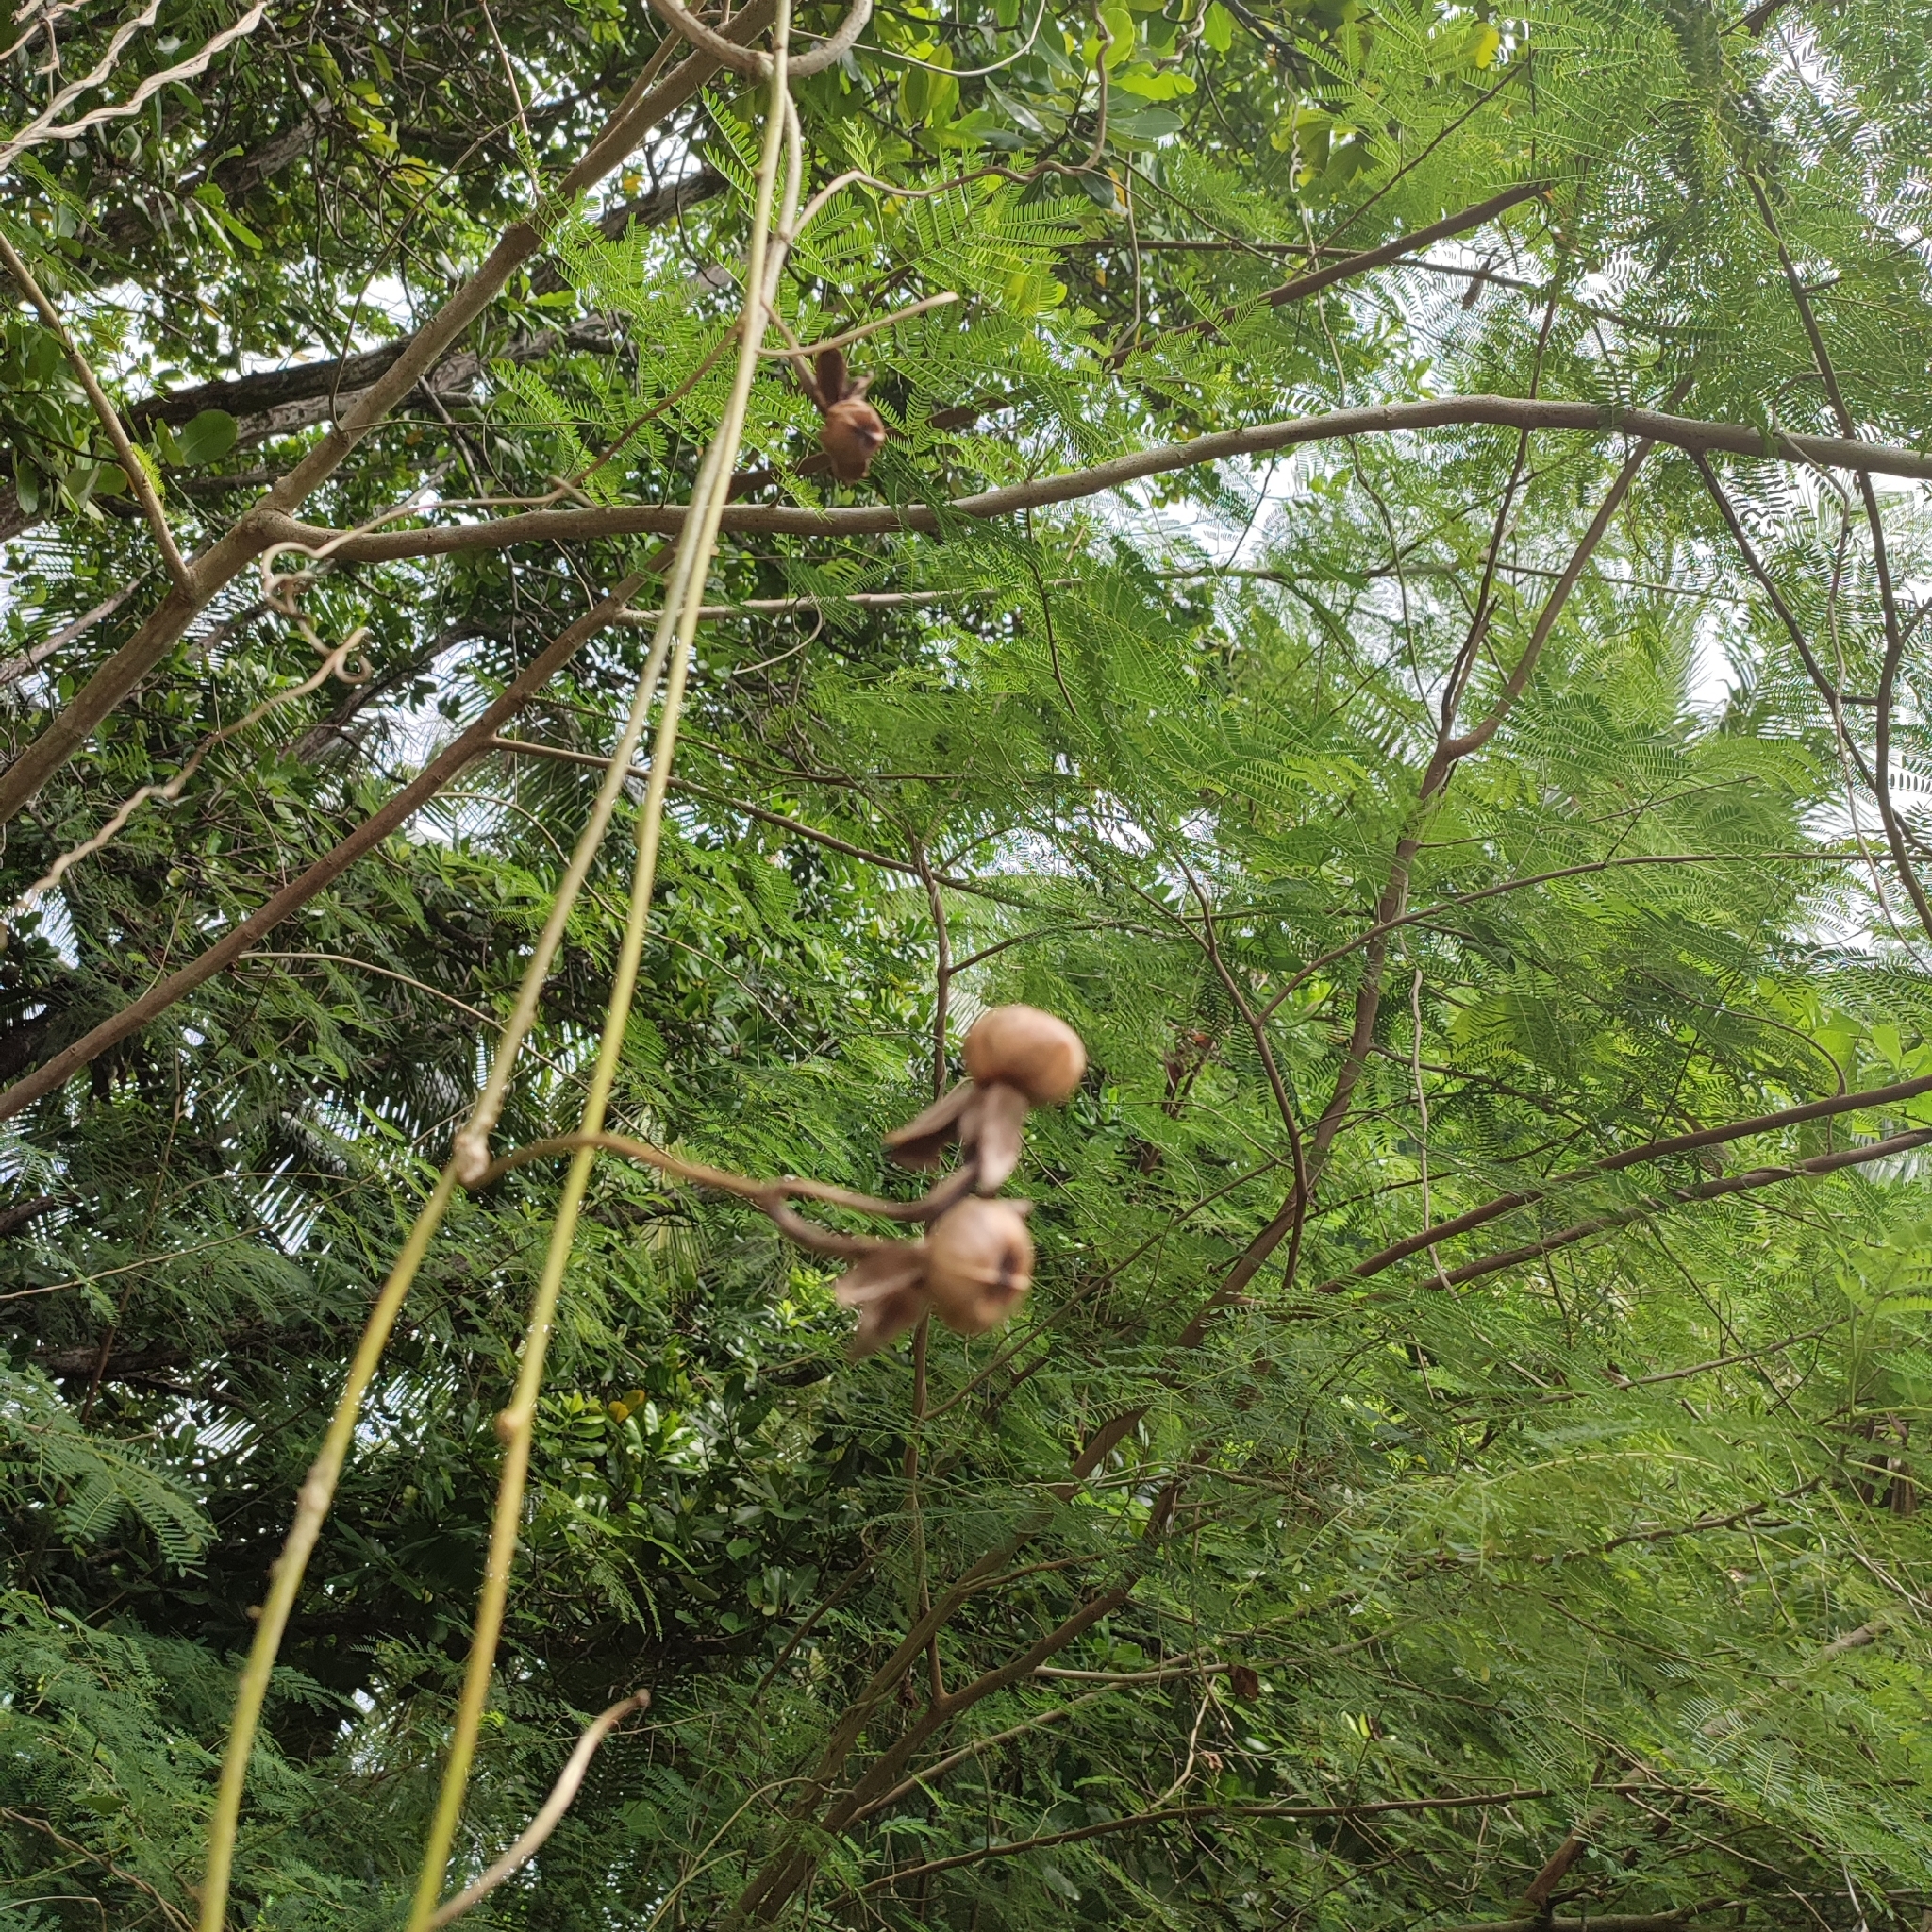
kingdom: Plantae
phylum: Tracheophyta
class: Magnoliopsida
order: Solanales
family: Convolvulaceae
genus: Ipomoea
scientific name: Ipomoea violacea
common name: Beach moonflower
